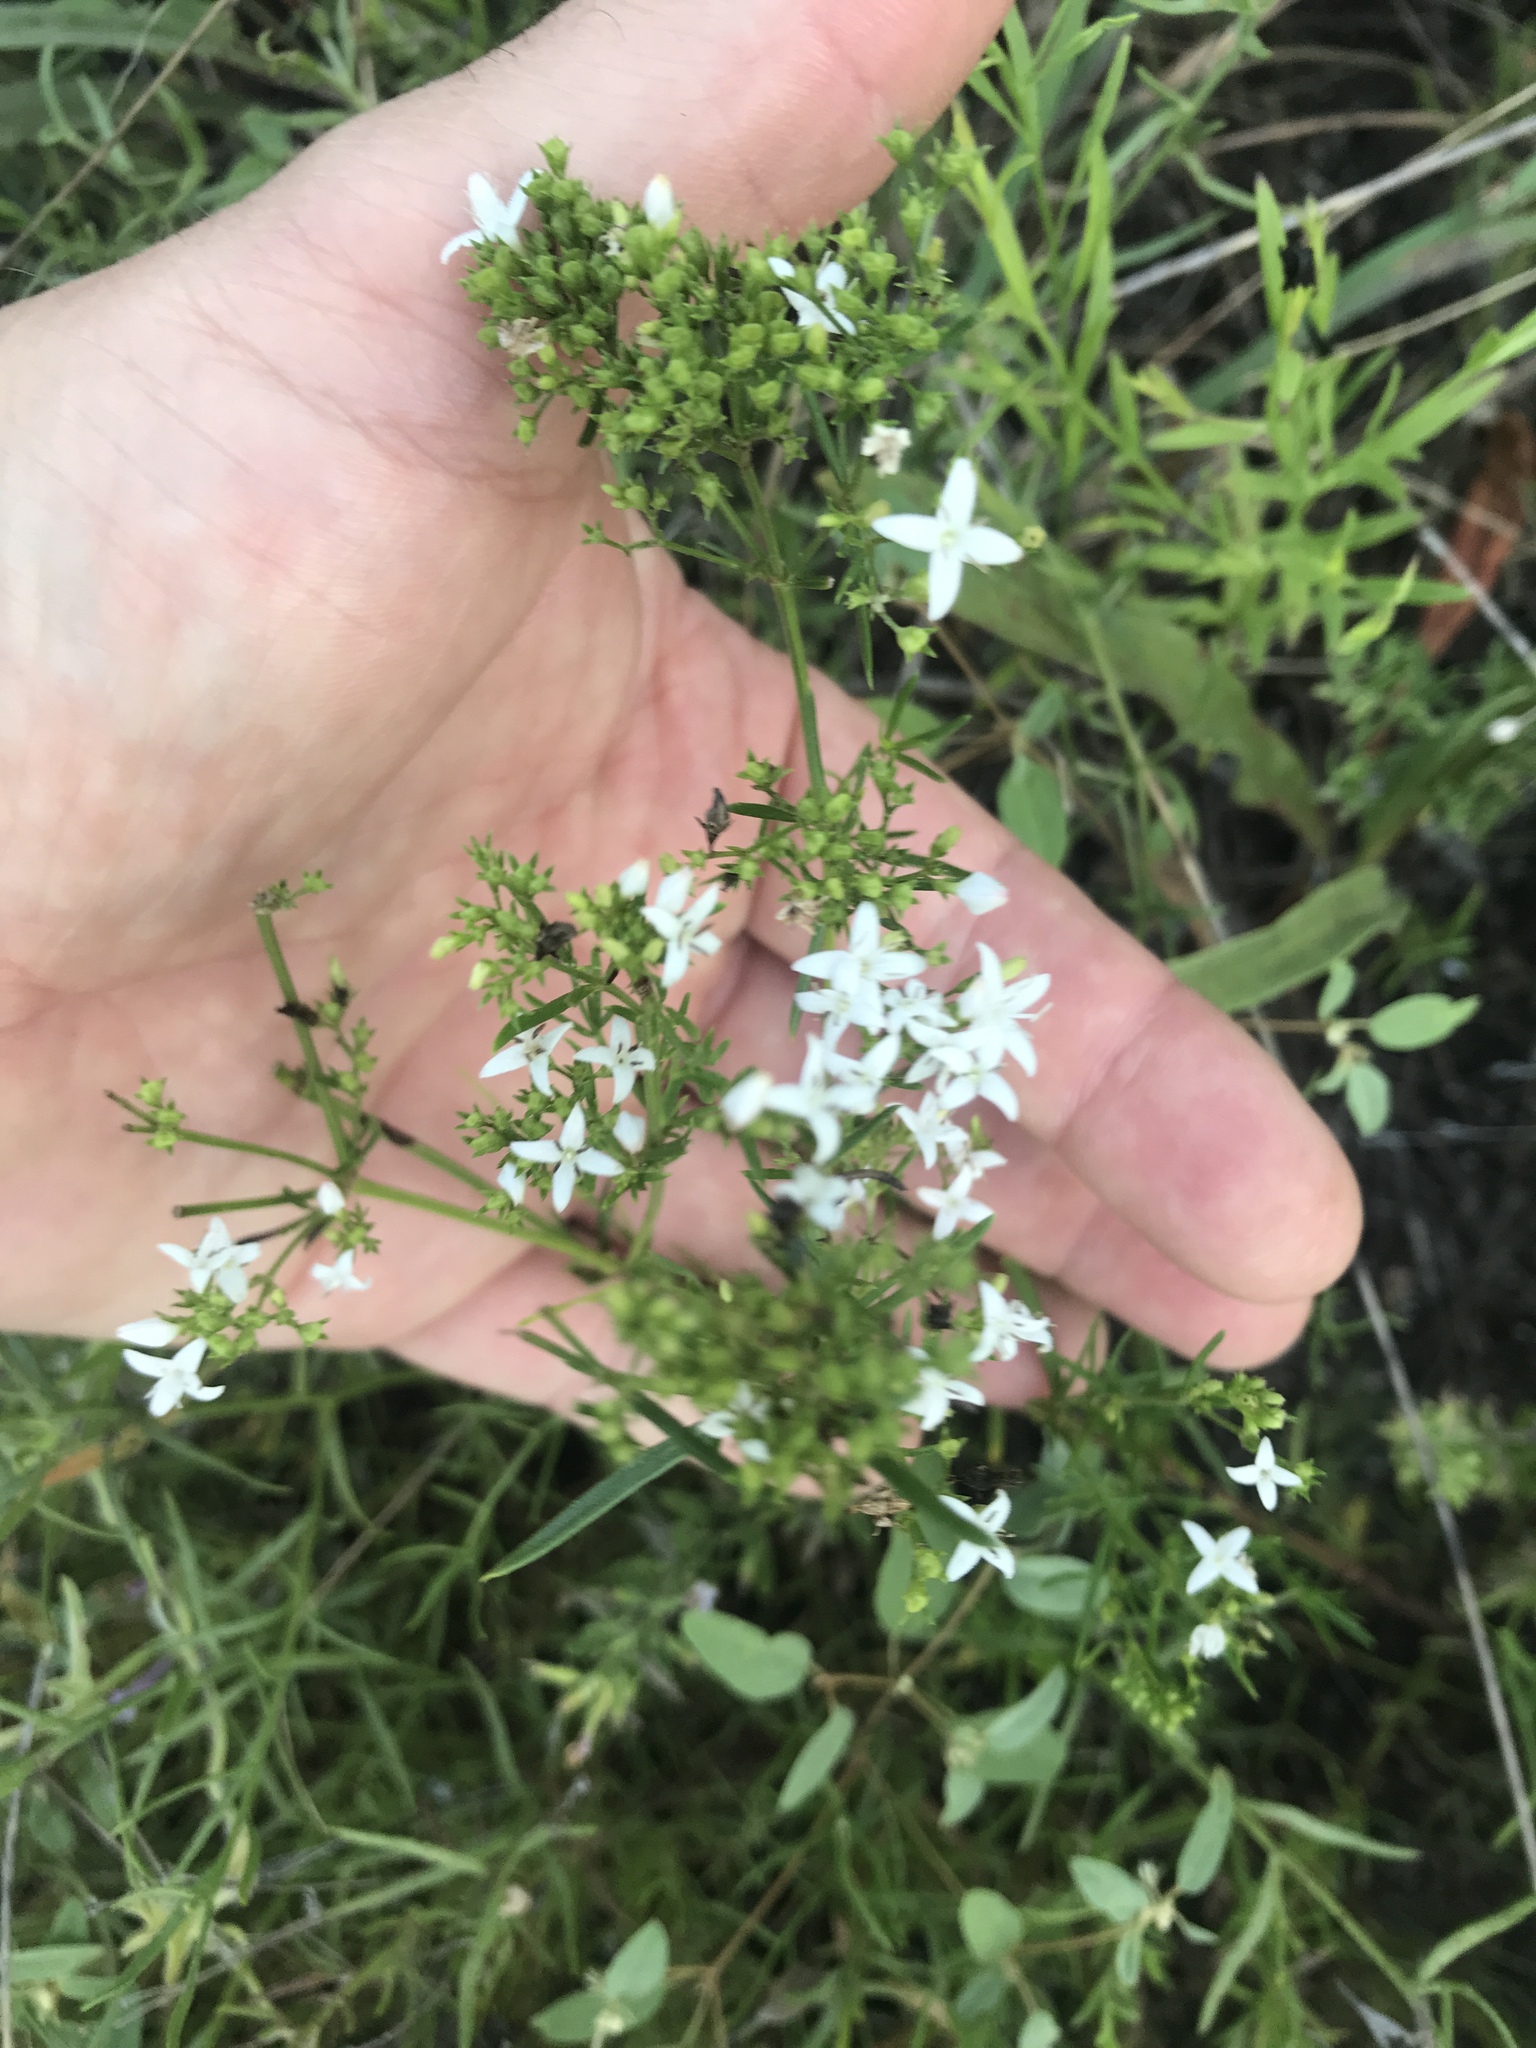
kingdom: Plantae
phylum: Tracheophyta
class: Magnoliopsida
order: Gentianales
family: Rubiaceae
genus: Stenaria
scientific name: Stenaria nigricans
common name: Diamondflowers
